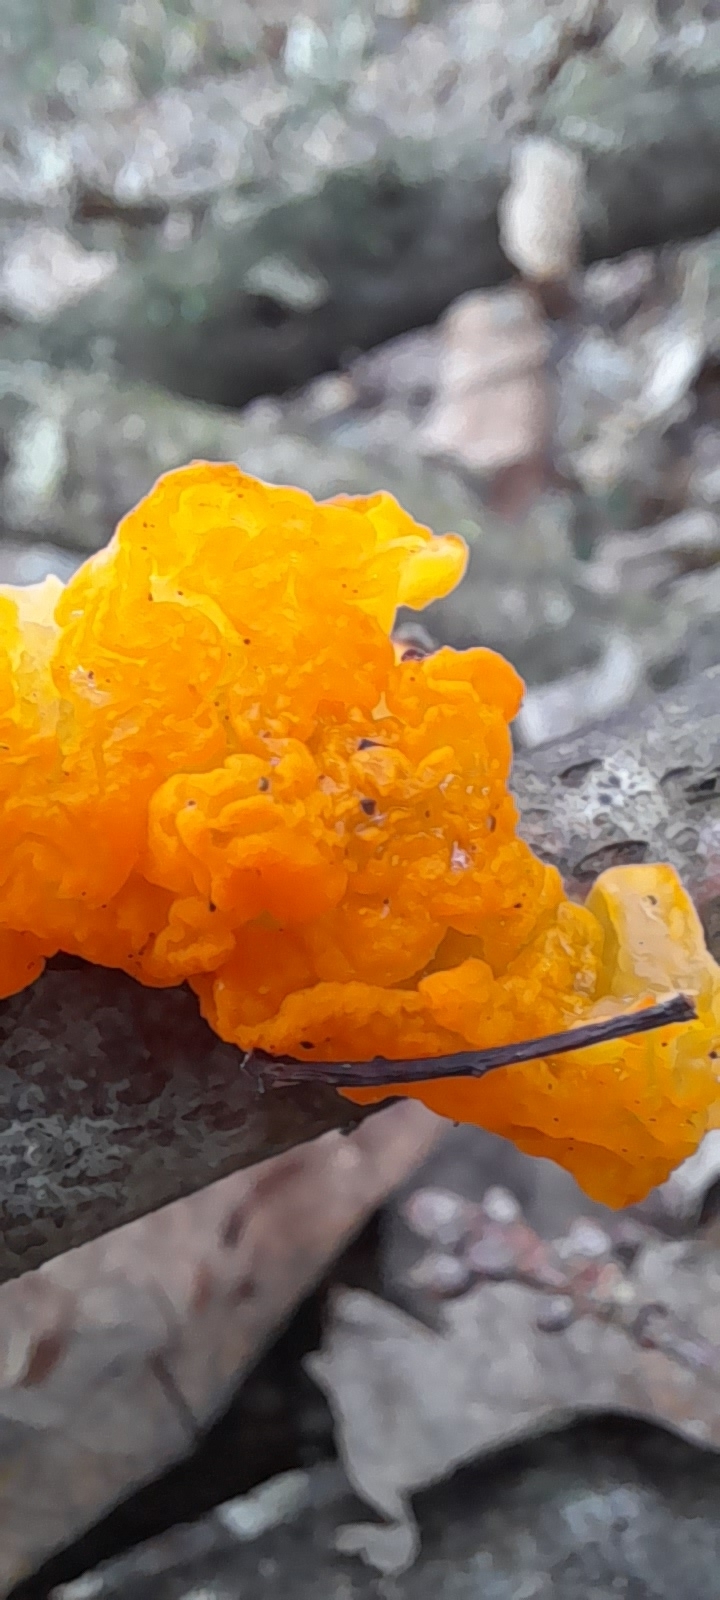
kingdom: Fungi
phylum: Basidiomycota
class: Tremellomycetes
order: Tremellales
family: Tremellaceae
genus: Tremella
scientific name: Tremella mesenterica
